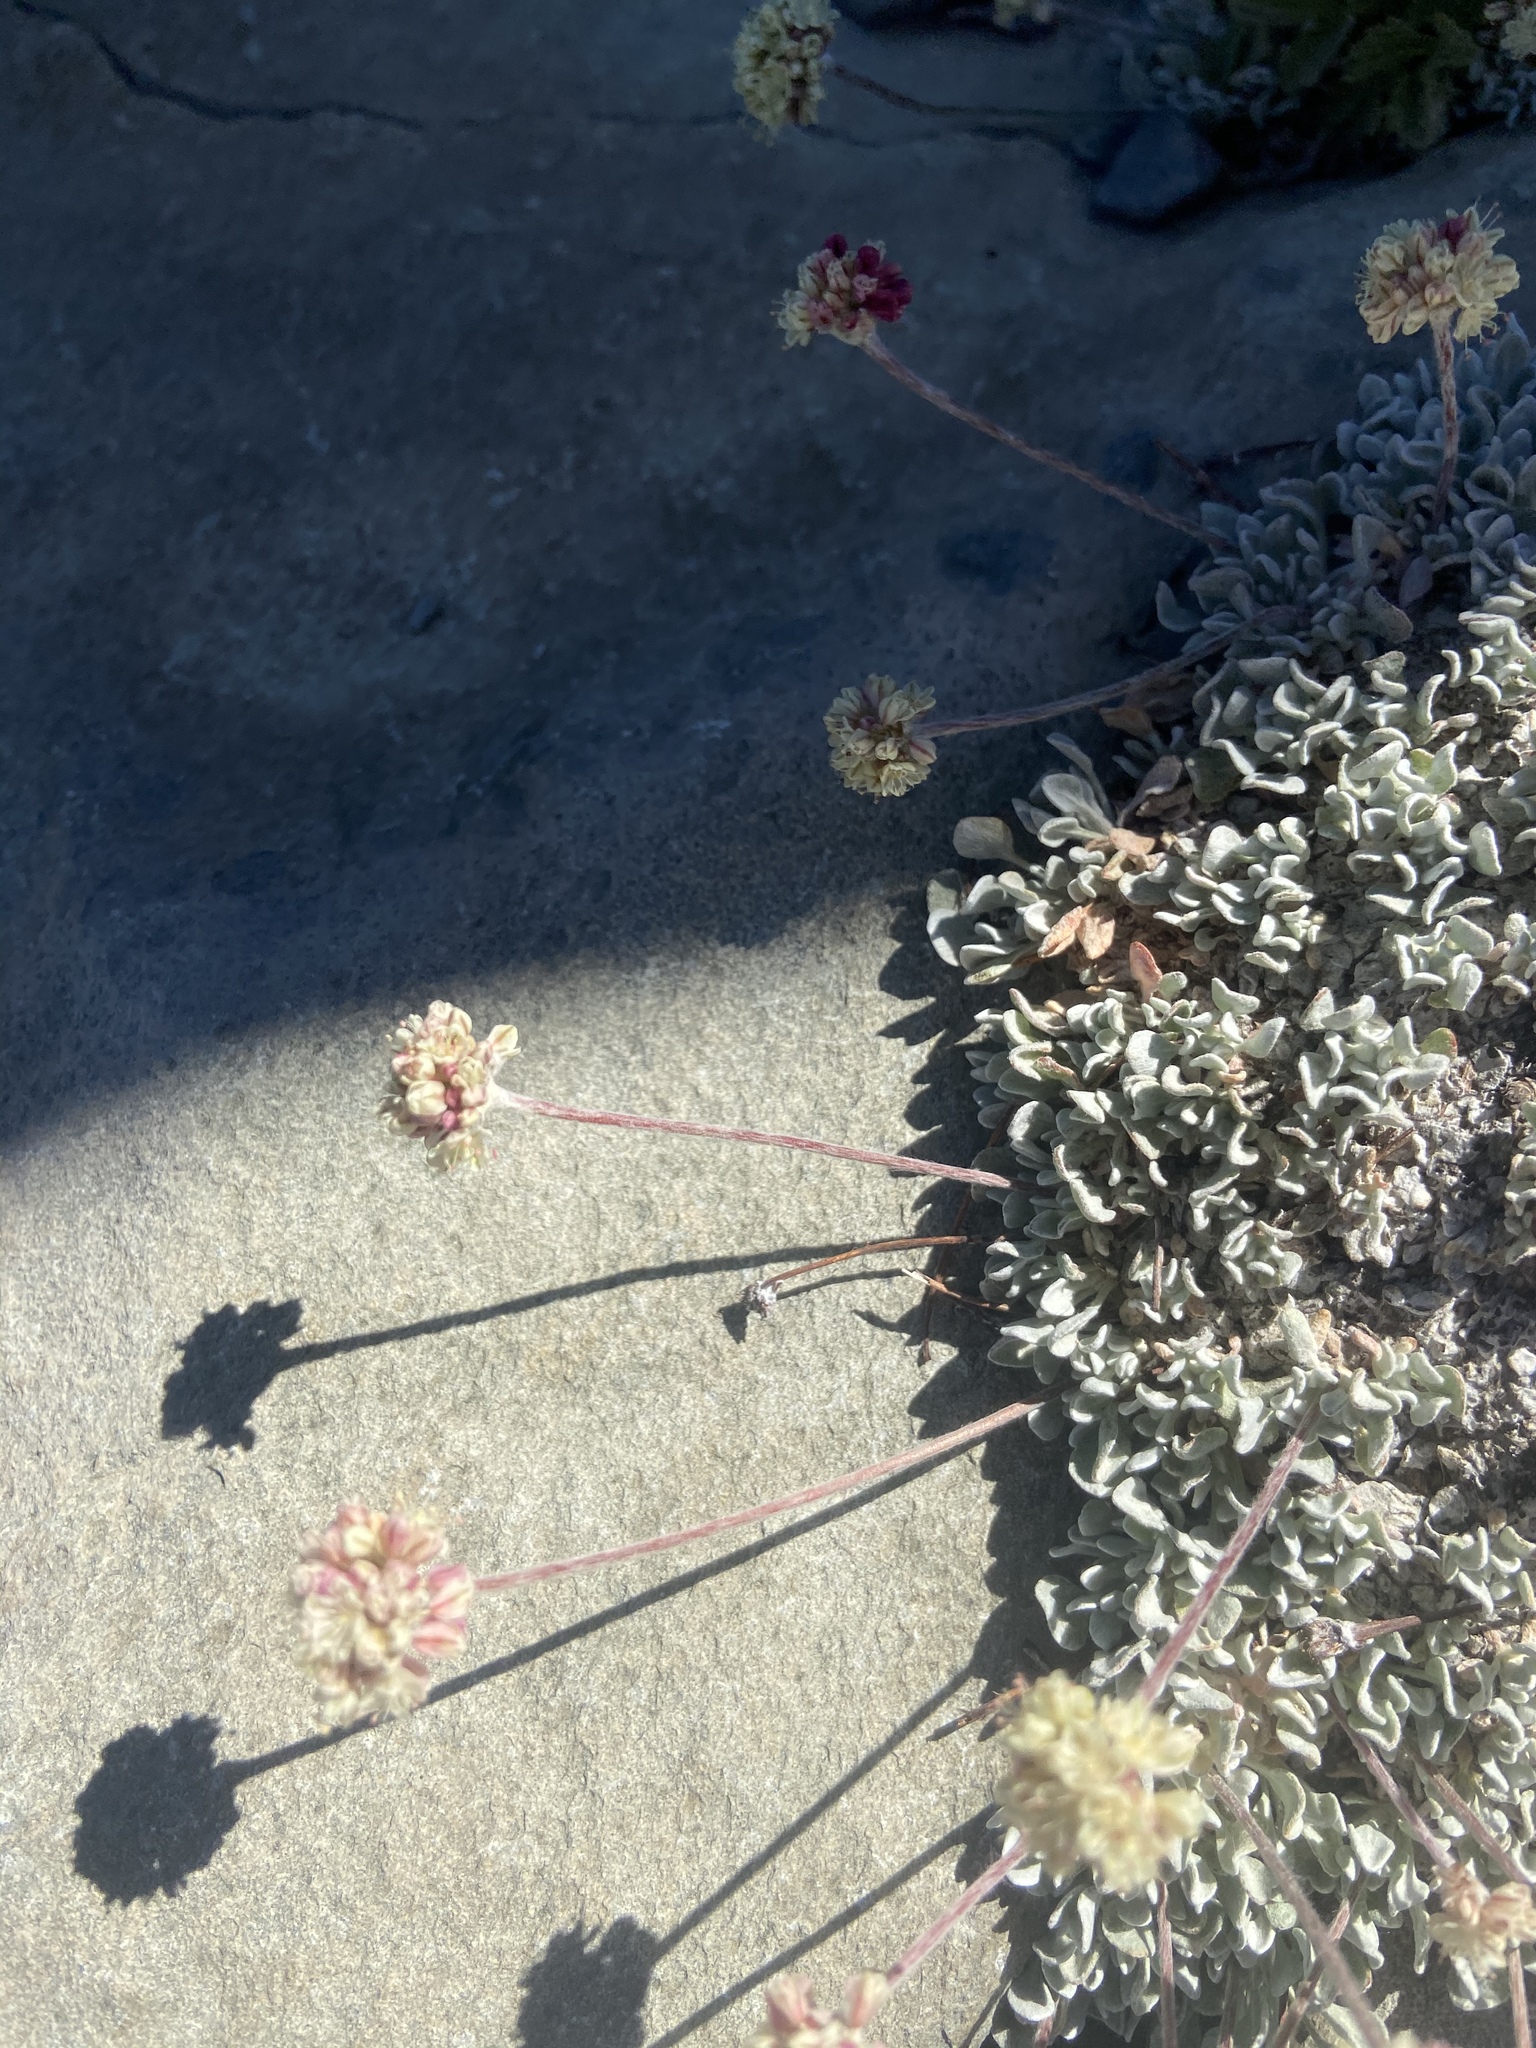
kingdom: Plantae
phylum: Tracheophyta
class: Magnoliopsida
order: Caryophyllales
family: Polygonaceae
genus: Eriogonum
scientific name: Eriogonum ovalifolium
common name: Cushion buckwheat
